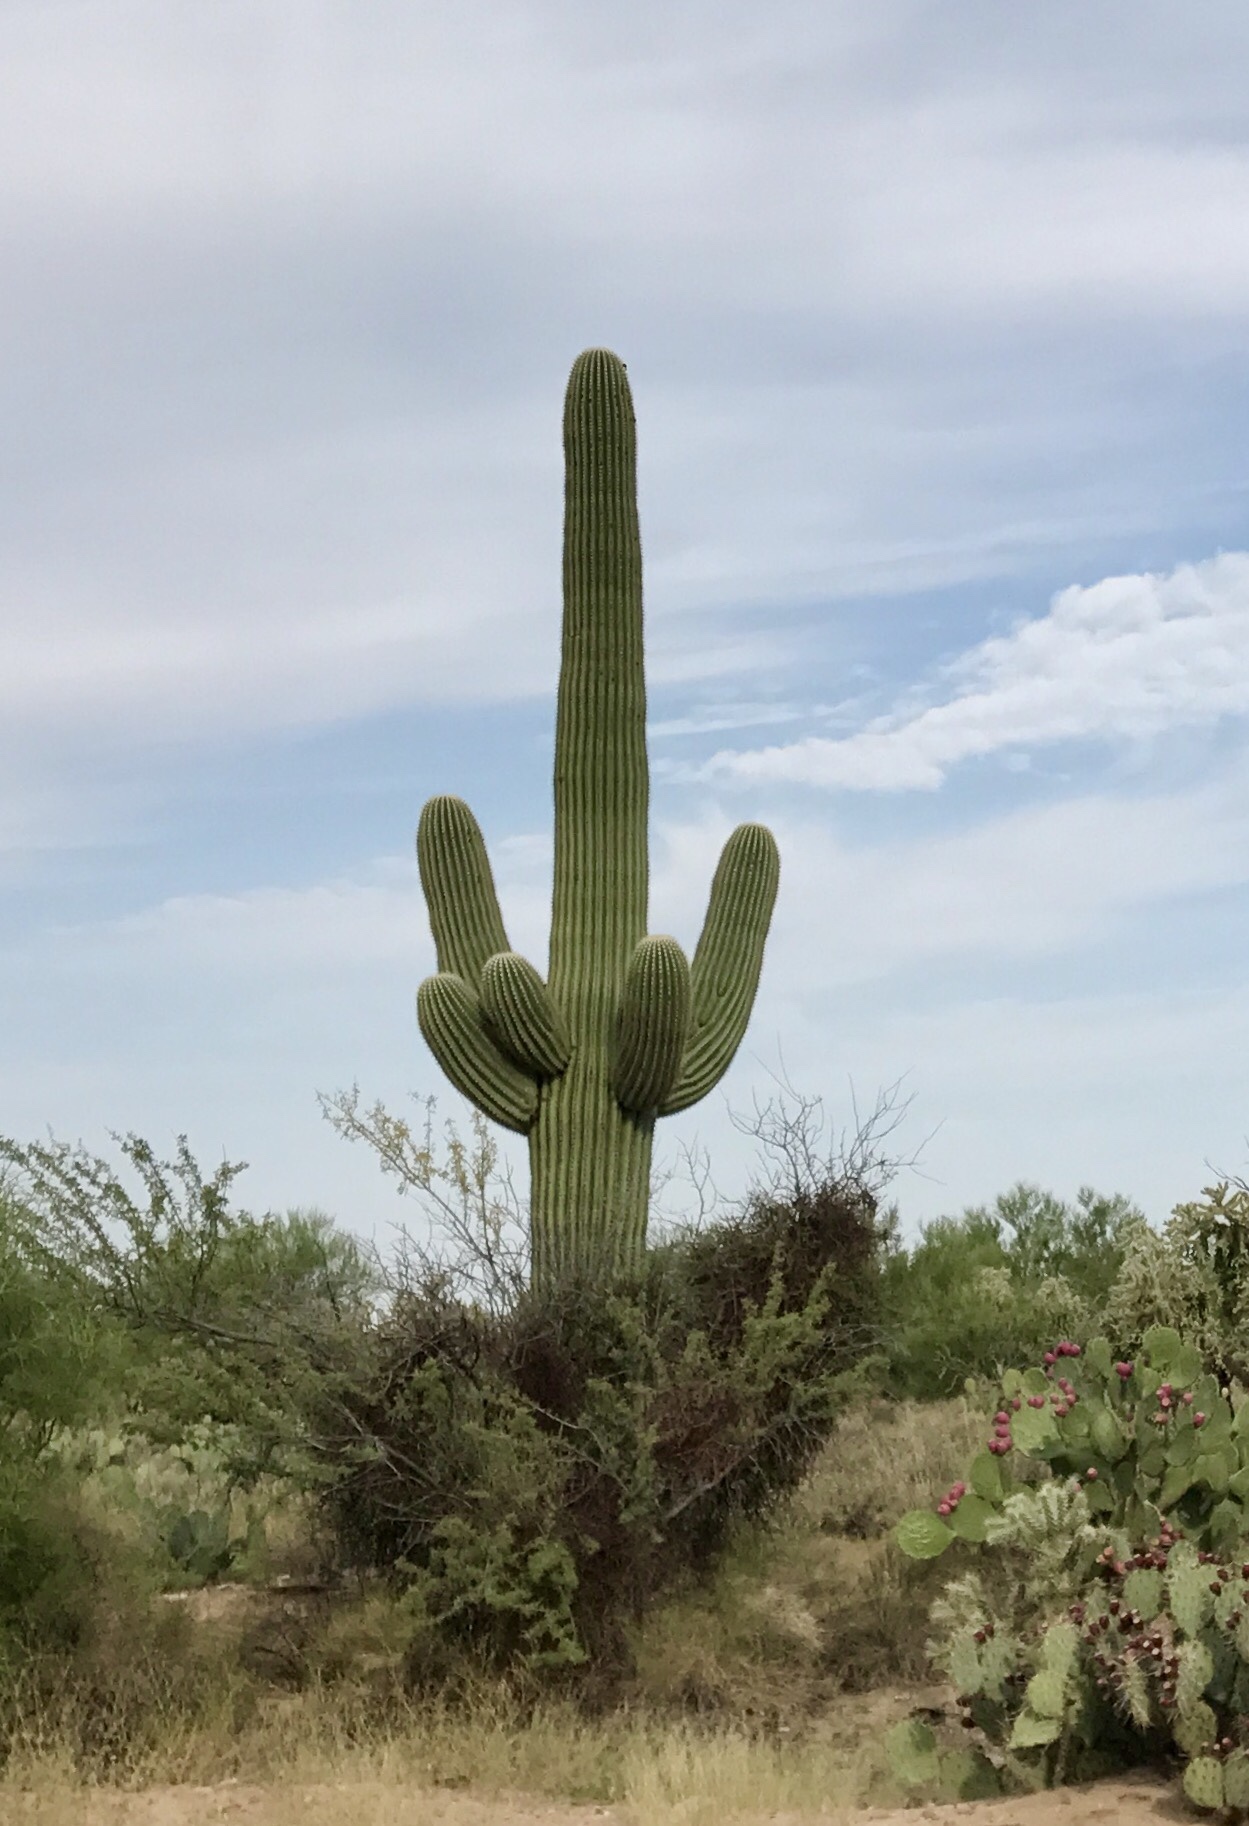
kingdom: Plantae
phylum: Tracheophyta
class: Magnoliopsida
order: Caryophyllales
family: Cactaceae
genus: Carnegiea
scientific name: Carnegiea gigantea
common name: Saguaro
